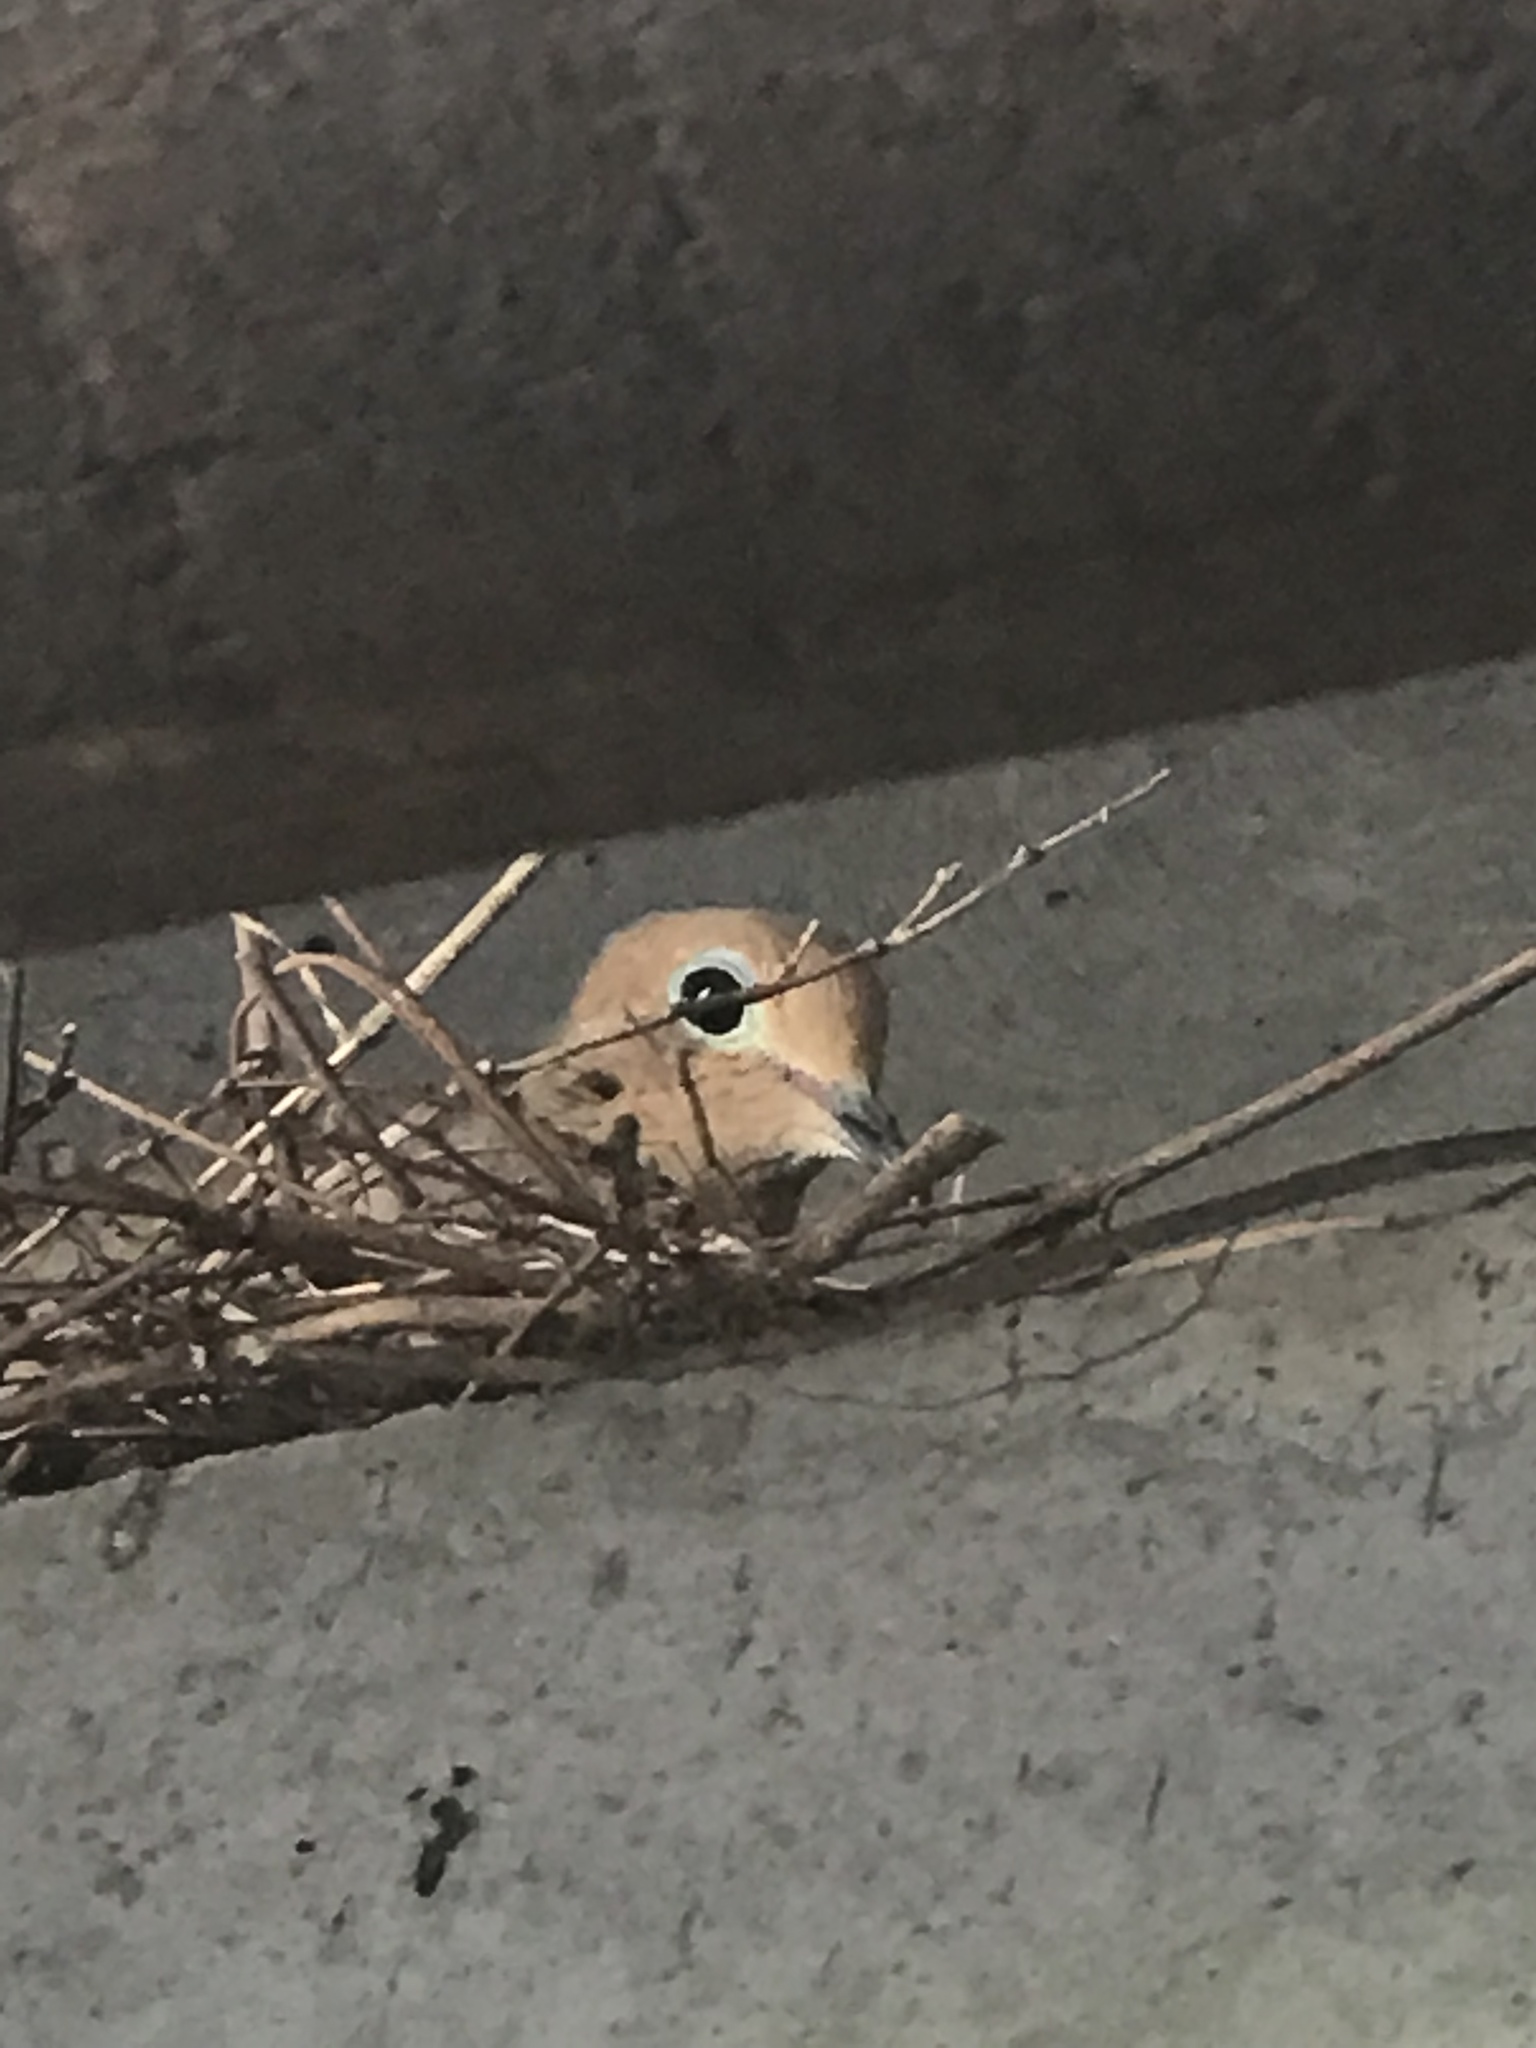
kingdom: Animalia
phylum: Chordata
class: Aves
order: Columbiformes
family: Columbidae
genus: Zenaida
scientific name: Zenaida macroura
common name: Mourning dove
